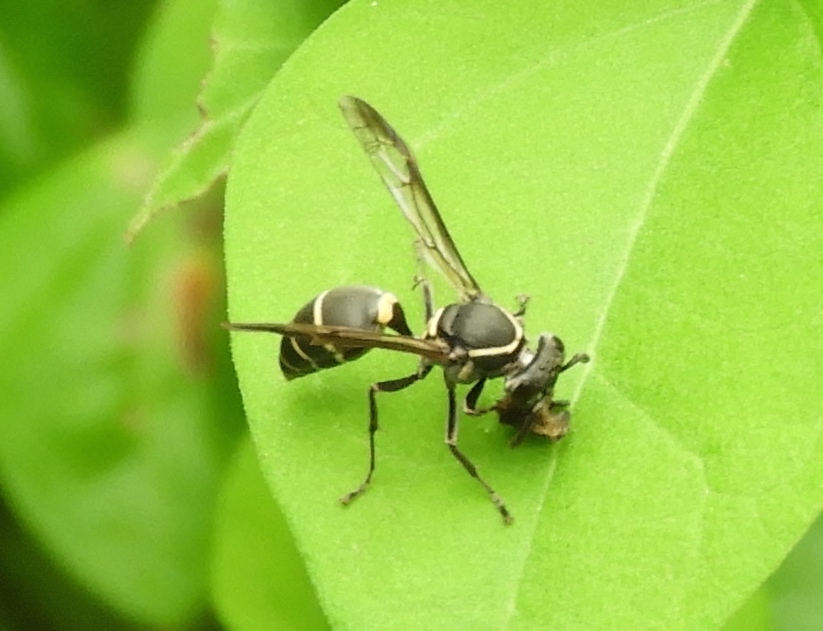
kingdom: Animalia
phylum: Arthropoda
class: Insecta
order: Hymenoptera
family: Vespidae
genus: Myrapetra
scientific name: Myrapetra
